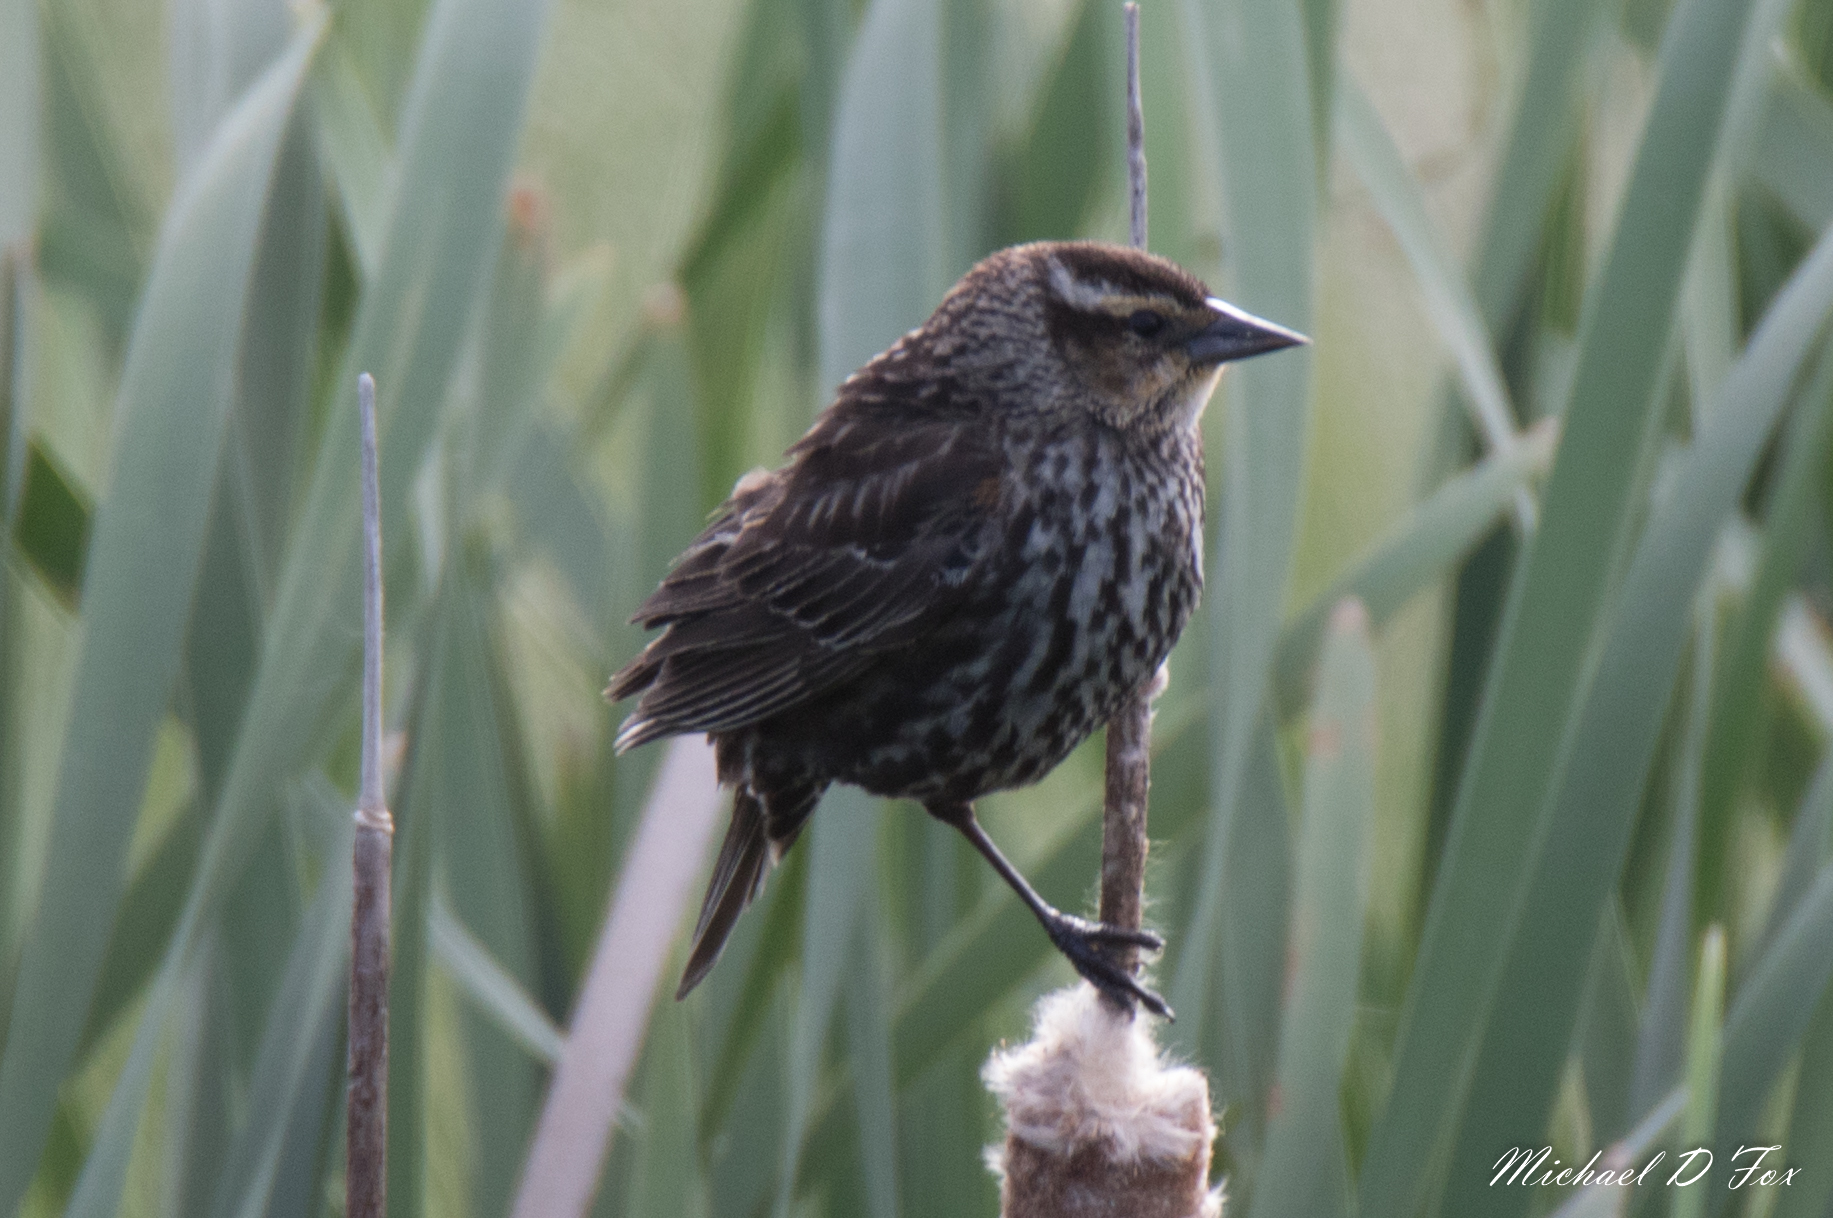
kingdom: Animalia
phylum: Chordata
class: Aves
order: Passeriformes
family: Icteridae
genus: Agelaius
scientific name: Agelaius phoeniceus
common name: Red-winged blackbird
